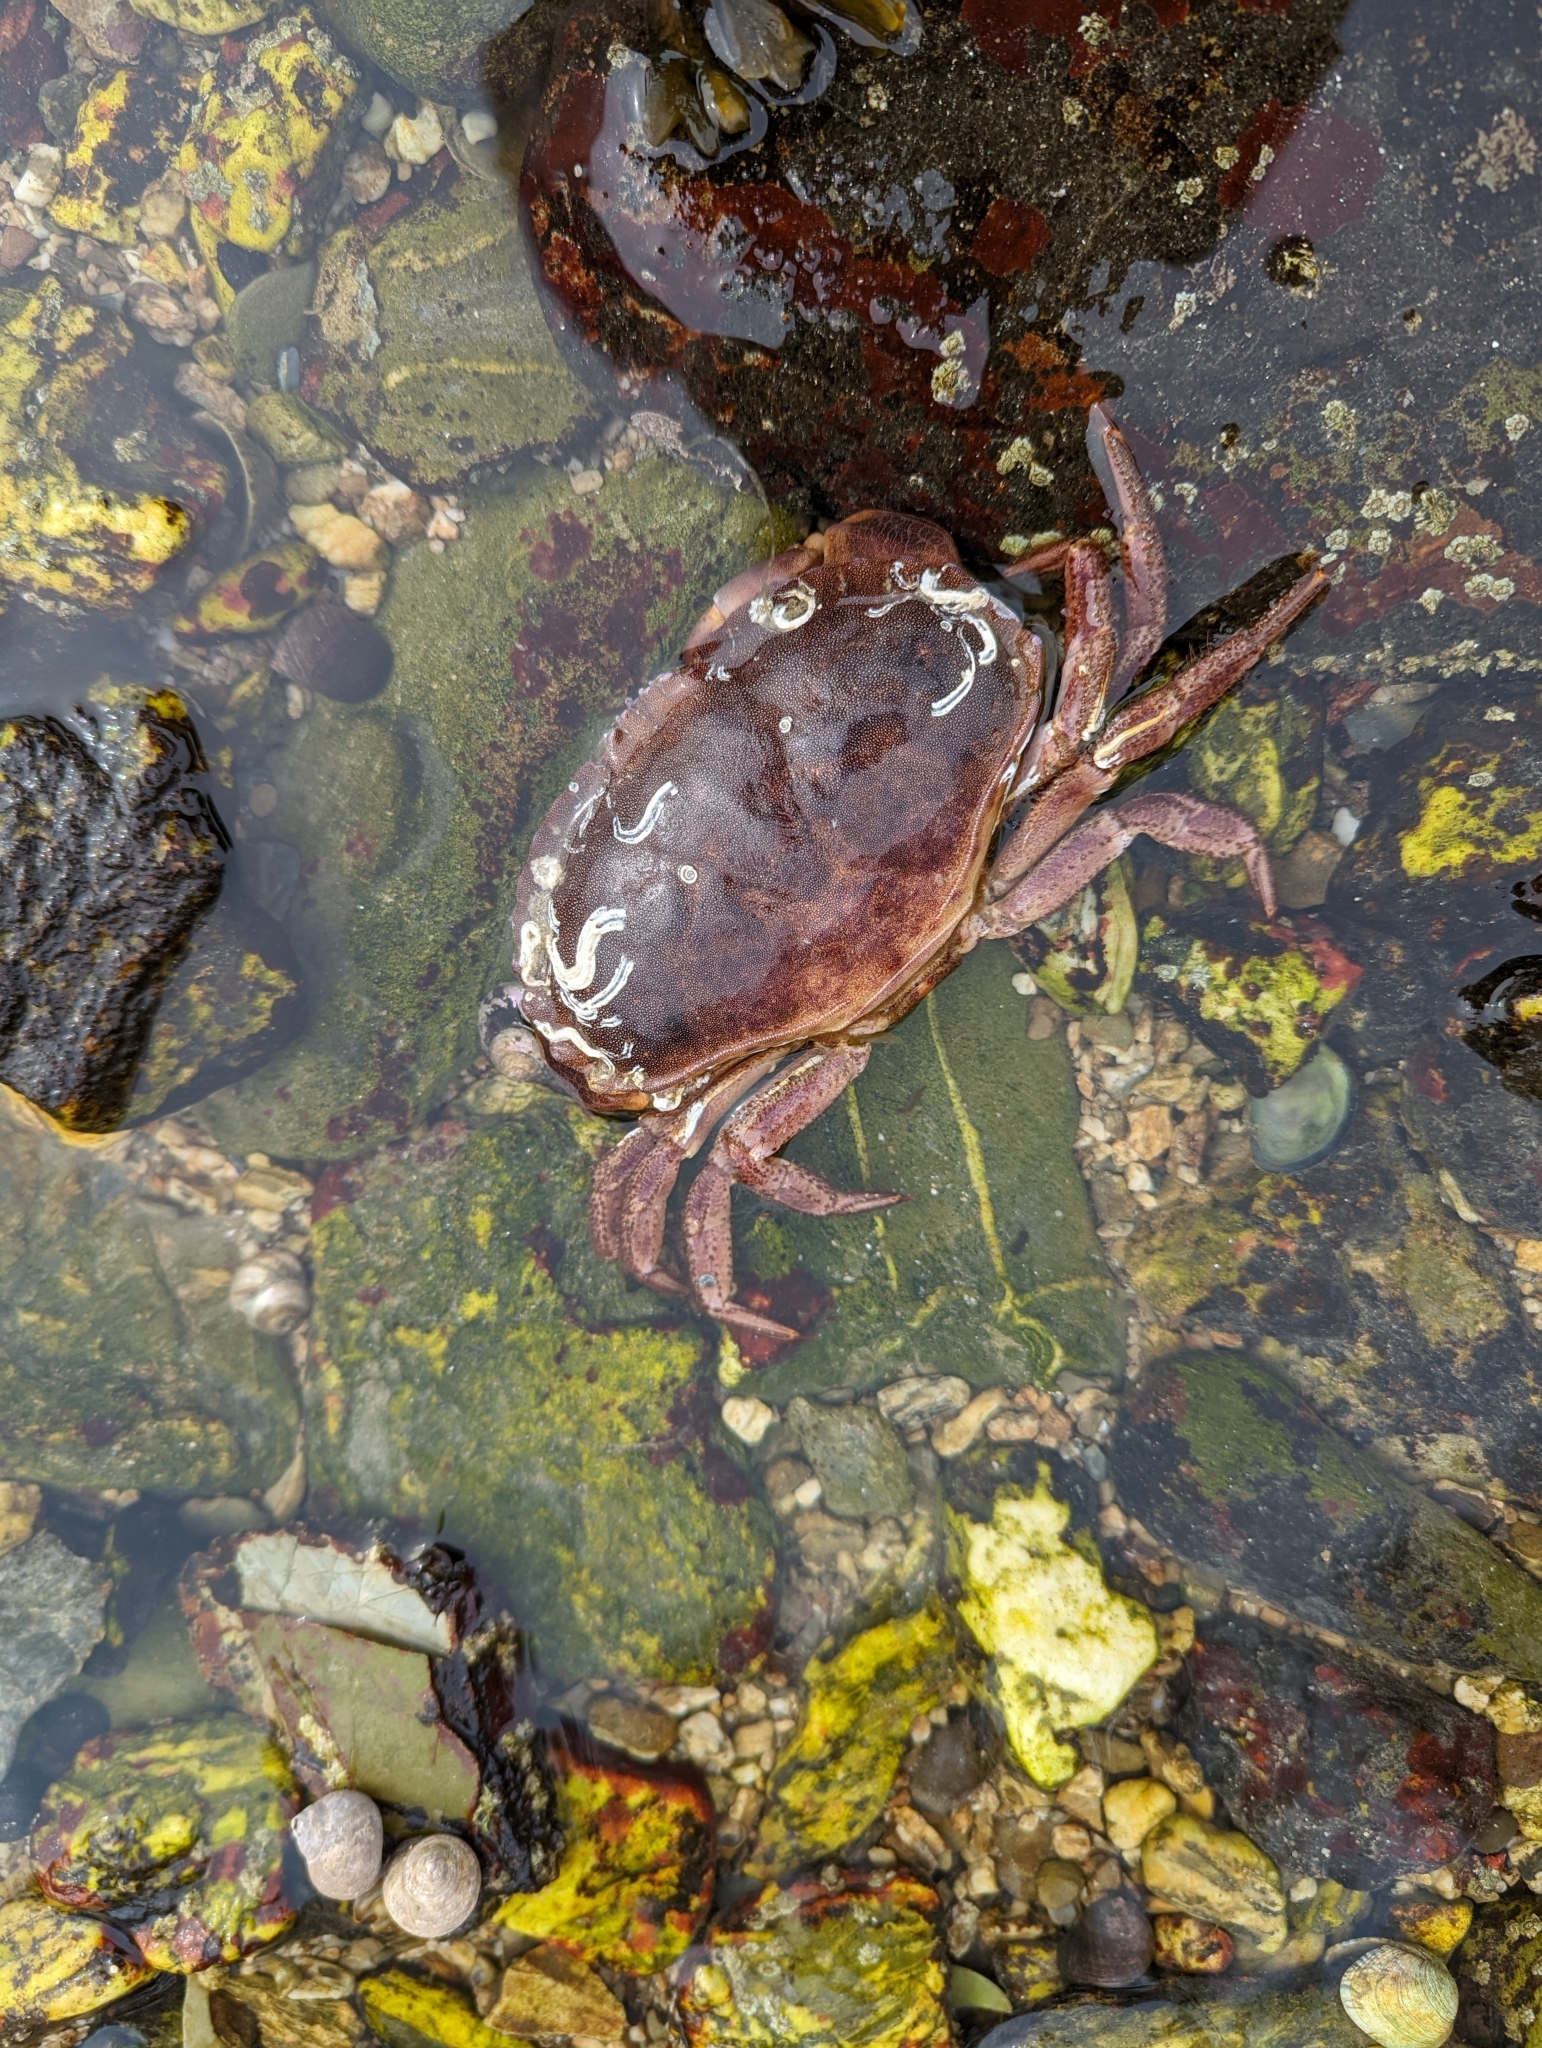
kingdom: Animalia
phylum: Arthropoda
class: Malacostraca
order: Decapoda
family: Cancridae
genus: Cancer
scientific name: Cancer pagurus
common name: Edible crab
